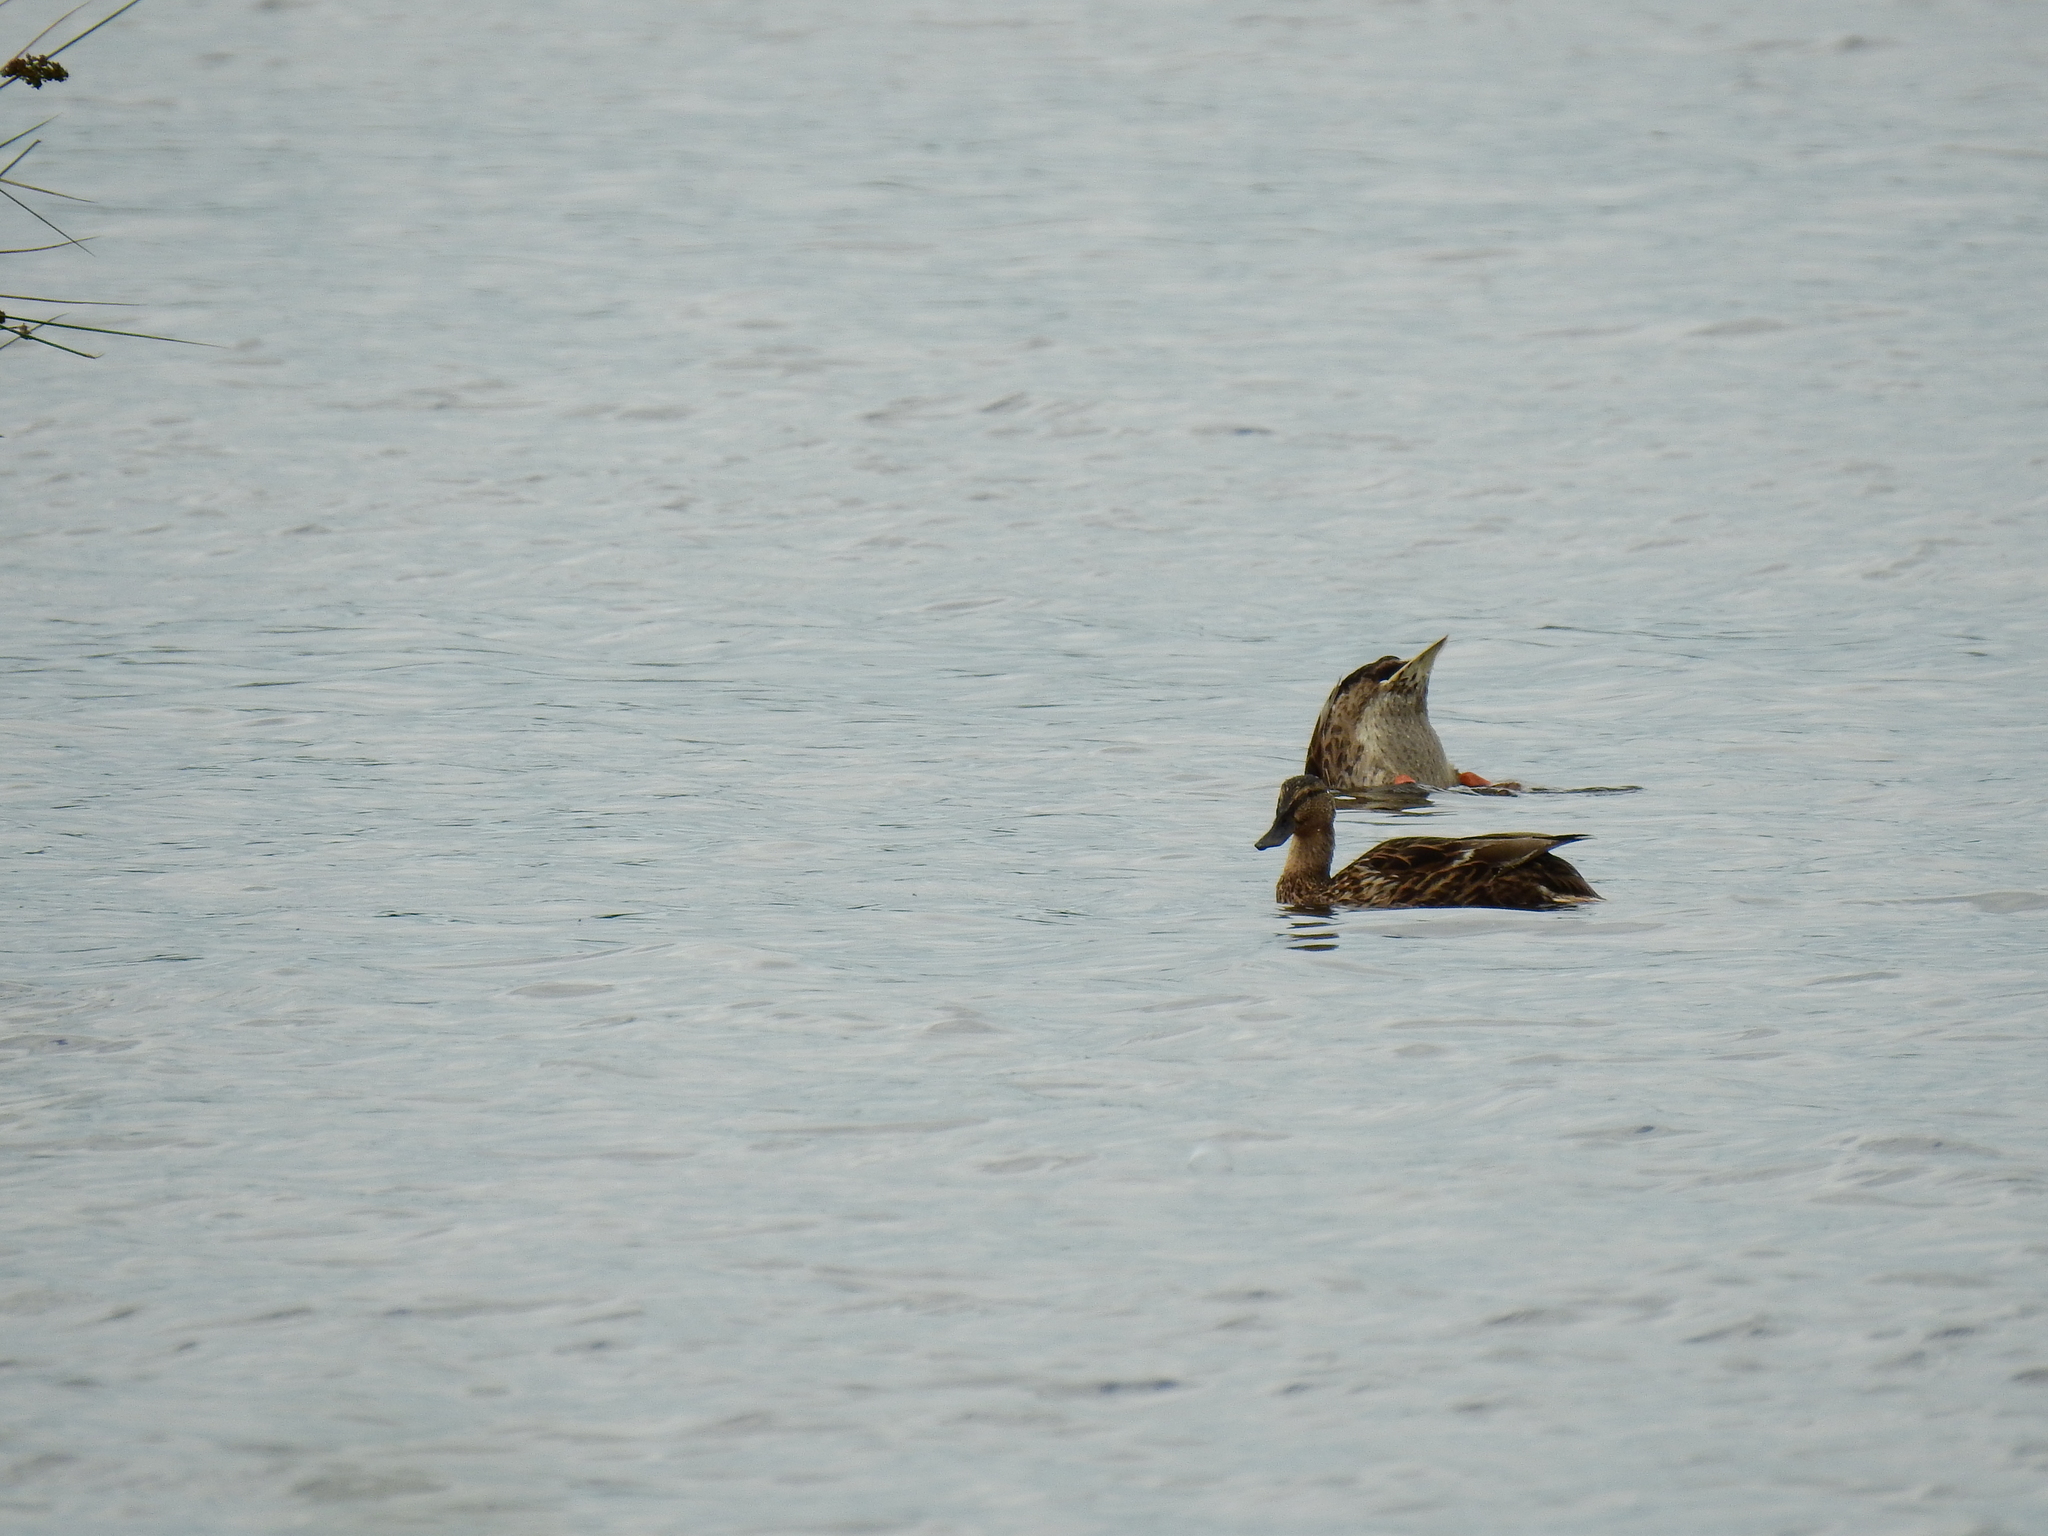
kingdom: Animalia
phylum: Chordata
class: Aves
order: Anseriformes
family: Anatidae
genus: Anas
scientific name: Anas platyrhynchos
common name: Mallard
